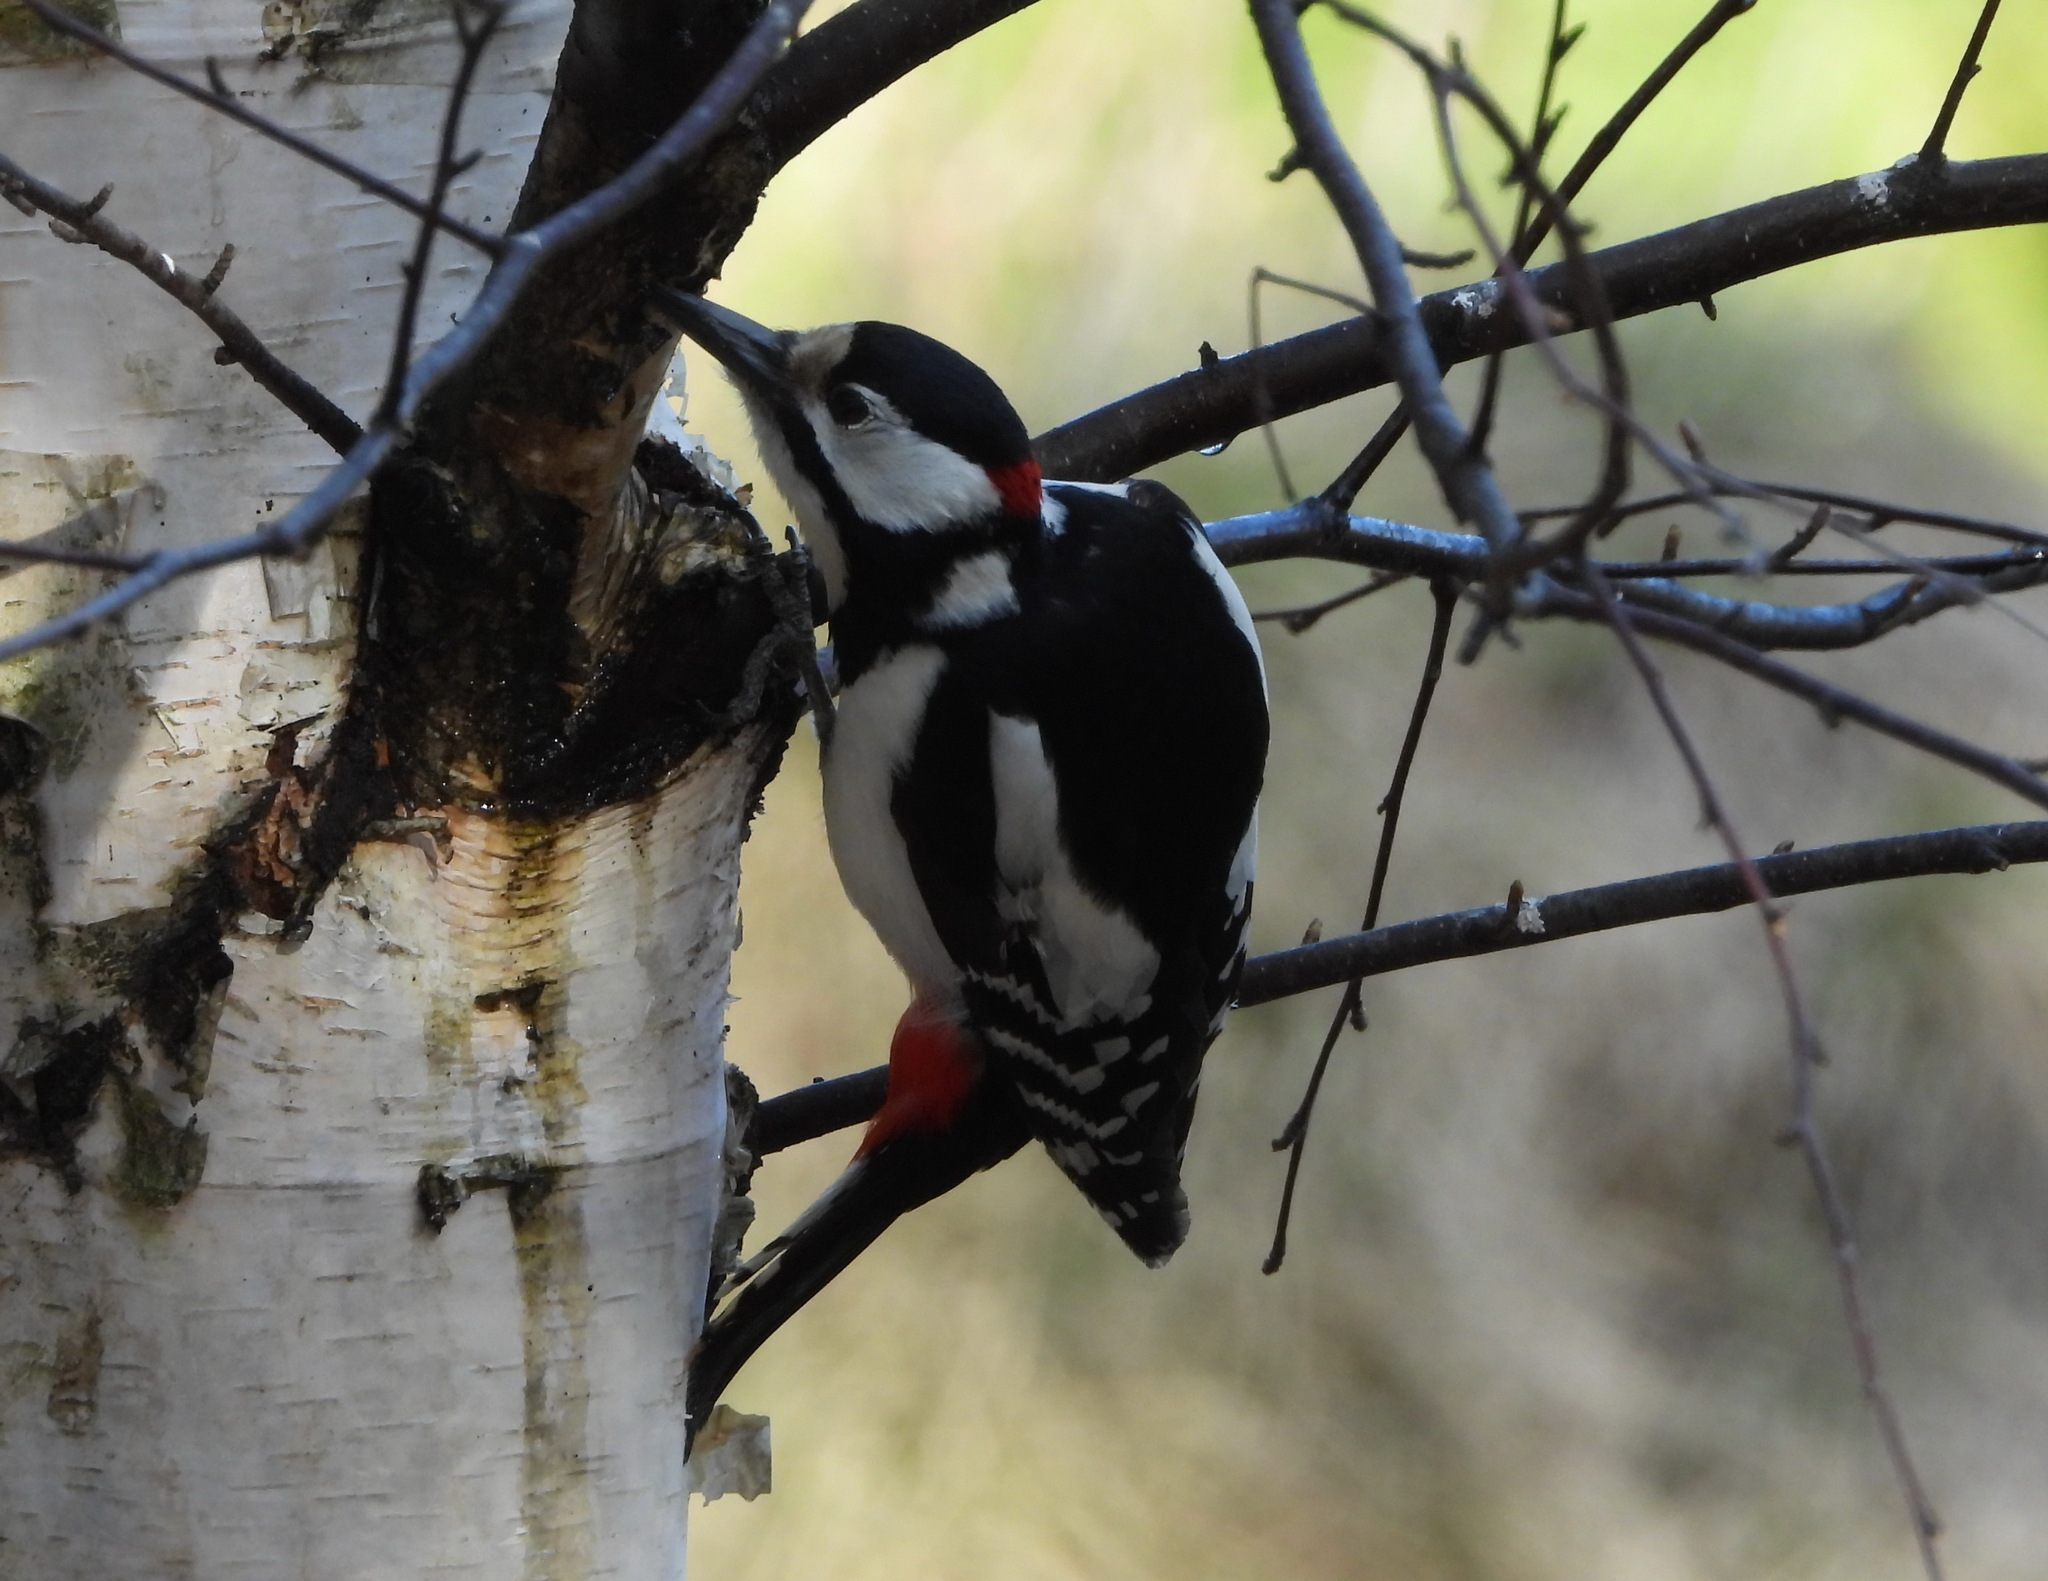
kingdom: Animalia
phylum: Chordata
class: Aves
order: Piciformes
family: Picidae
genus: Dendrocopos
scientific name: Dendrocopos major
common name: Great spotted woodpecker
